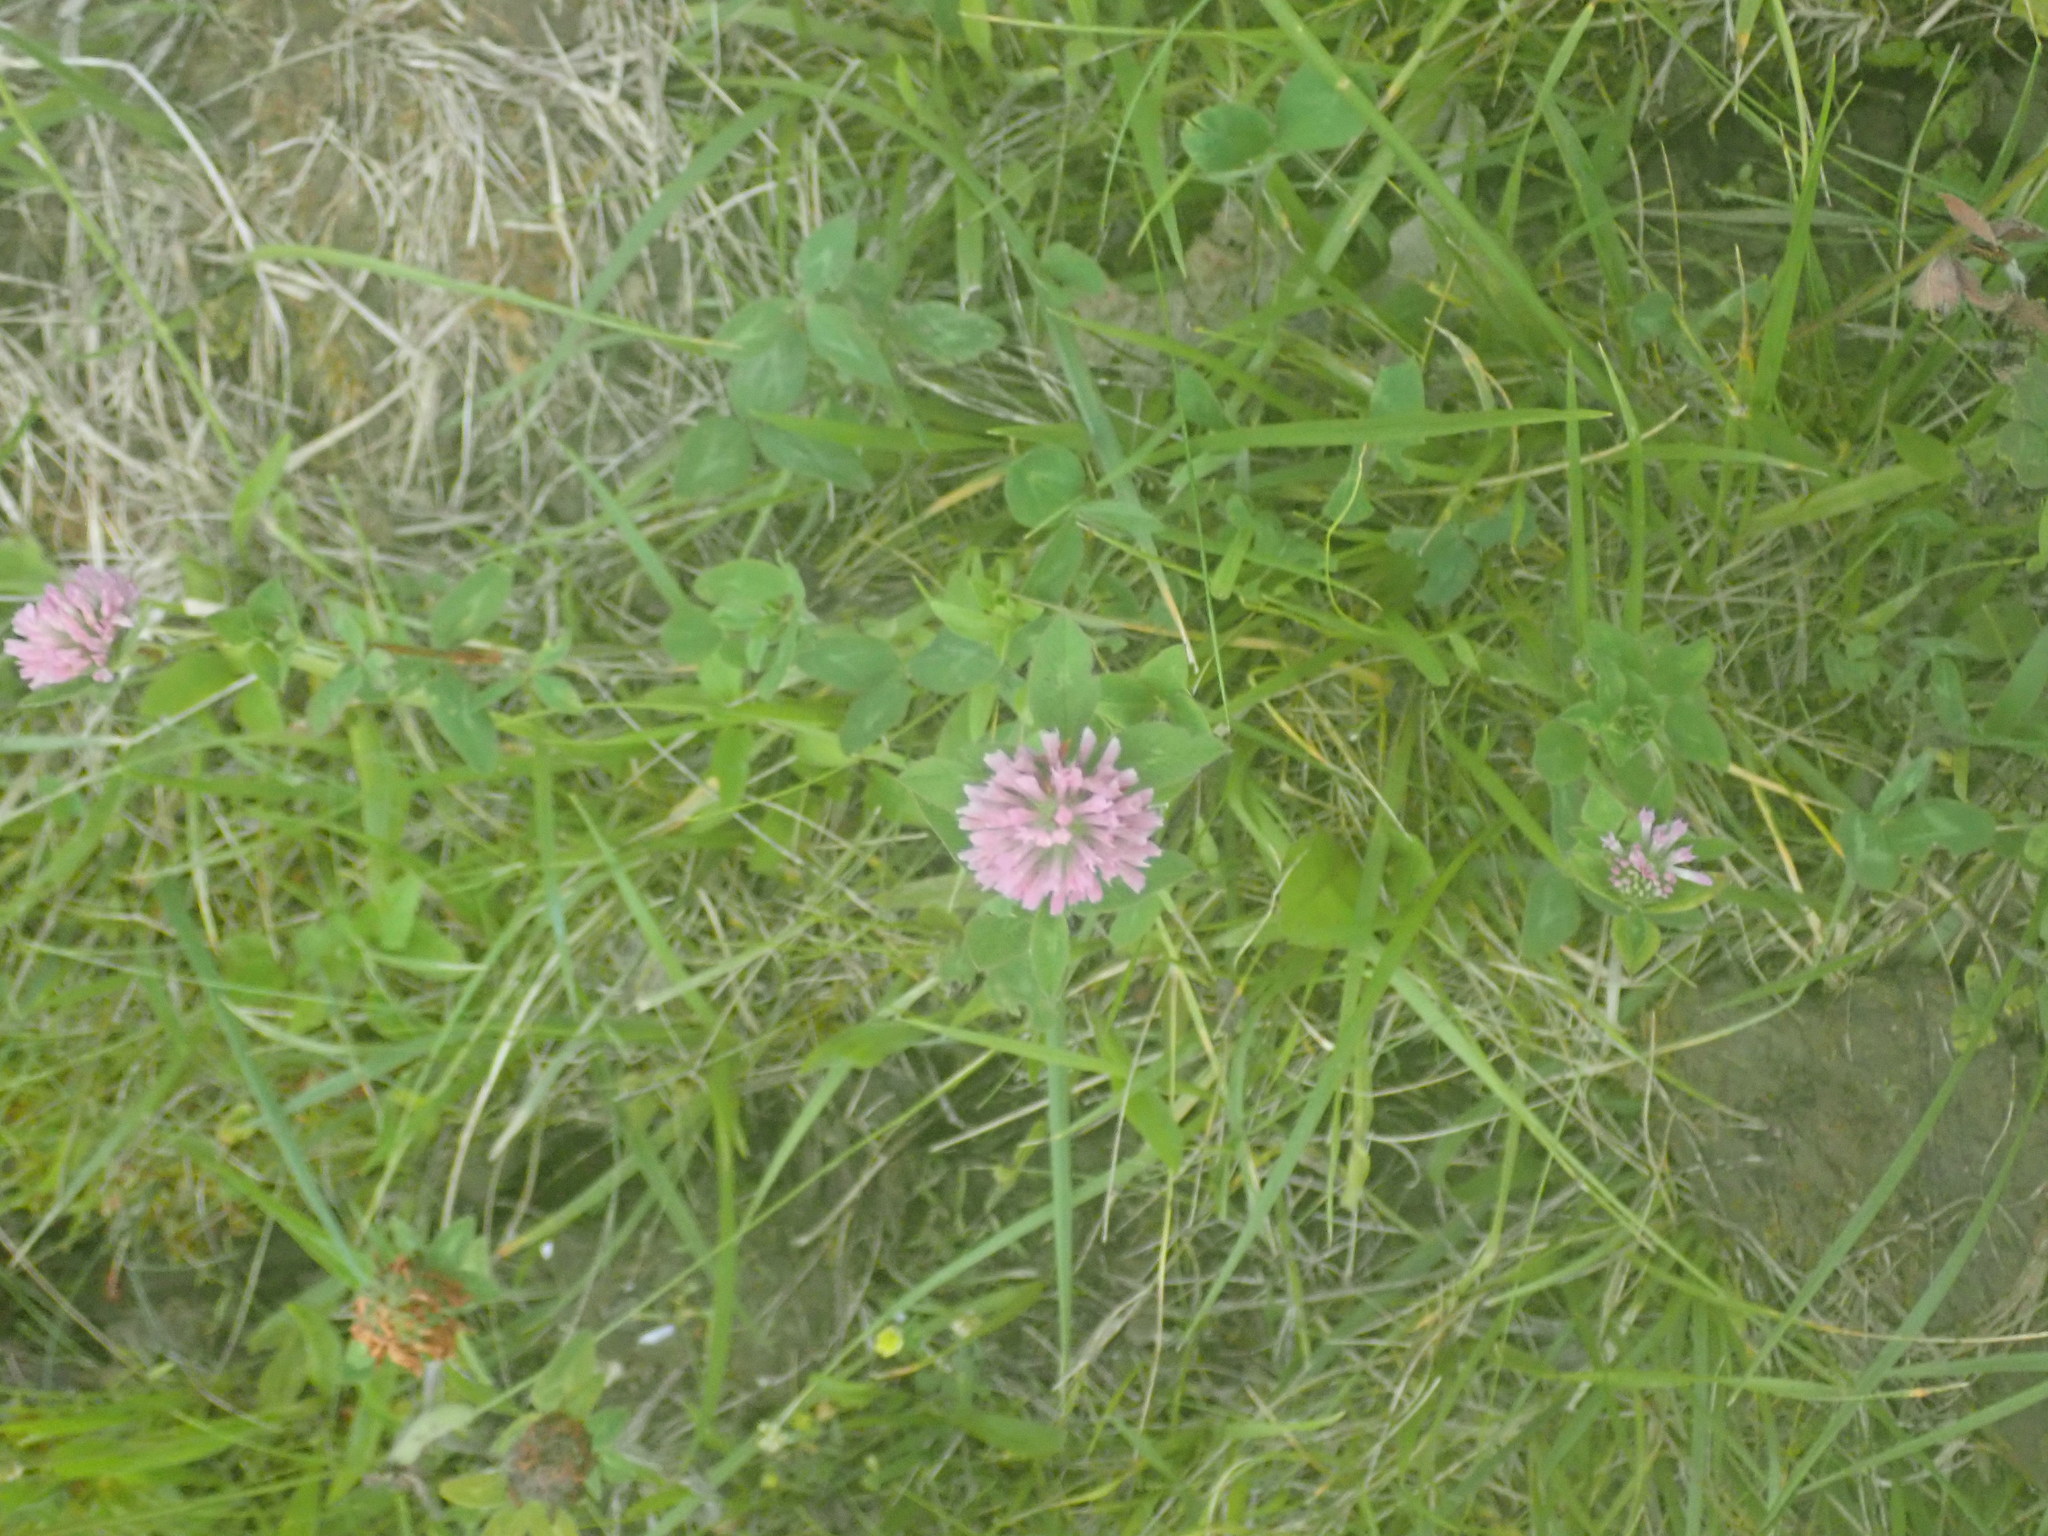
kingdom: Plantae
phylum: Tracheophyta
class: Magnoliopsida
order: Fabales
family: Fabaceae
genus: Trifolium
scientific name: Trifolium pratense
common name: Red clover
